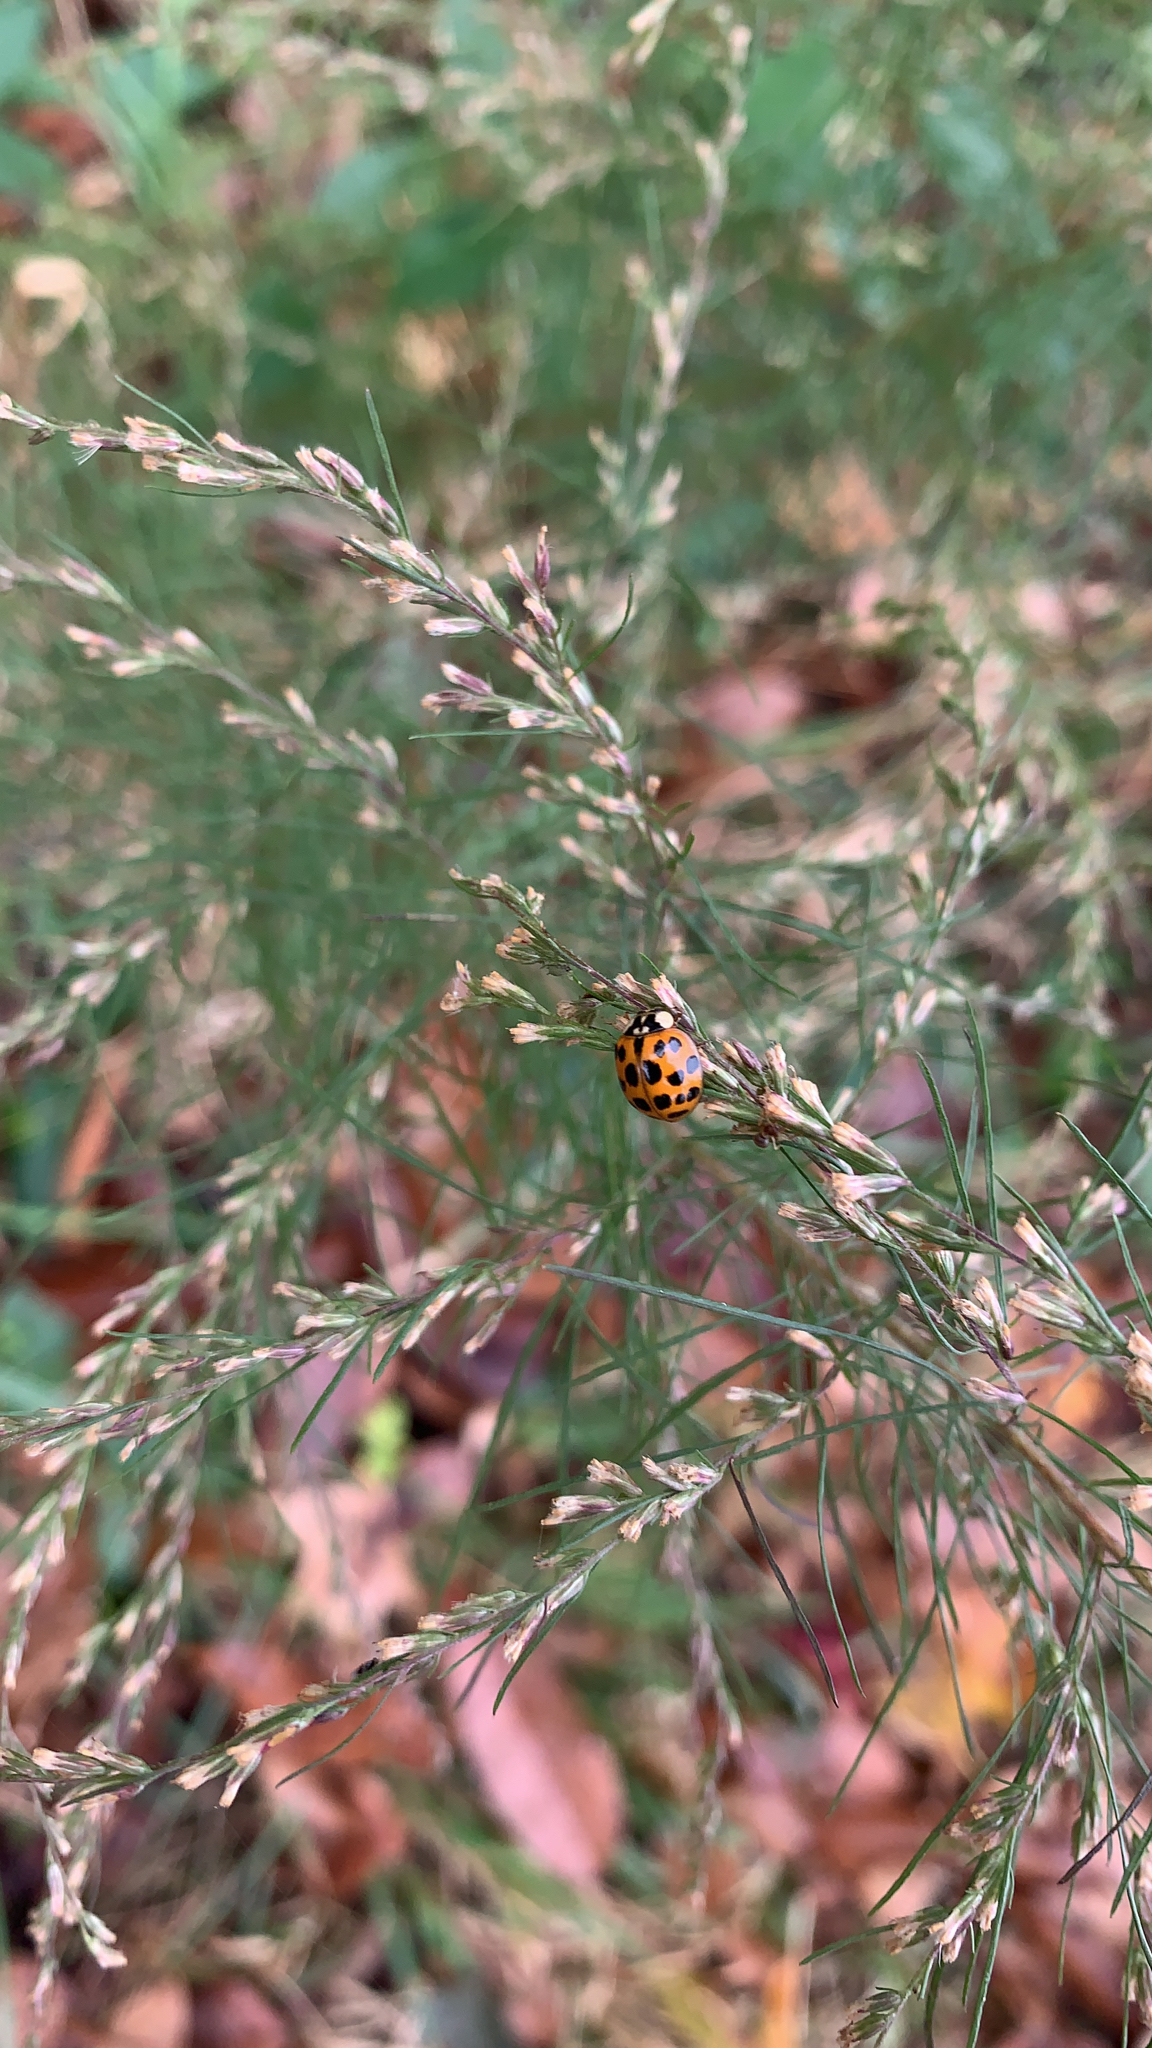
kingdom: Animalia
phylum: Arthropoda
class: Insecta
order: Coleoptera
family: Coccinellidae
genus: Harmonia
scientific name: Harmonia axyridis
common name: Harlequin ladybird
